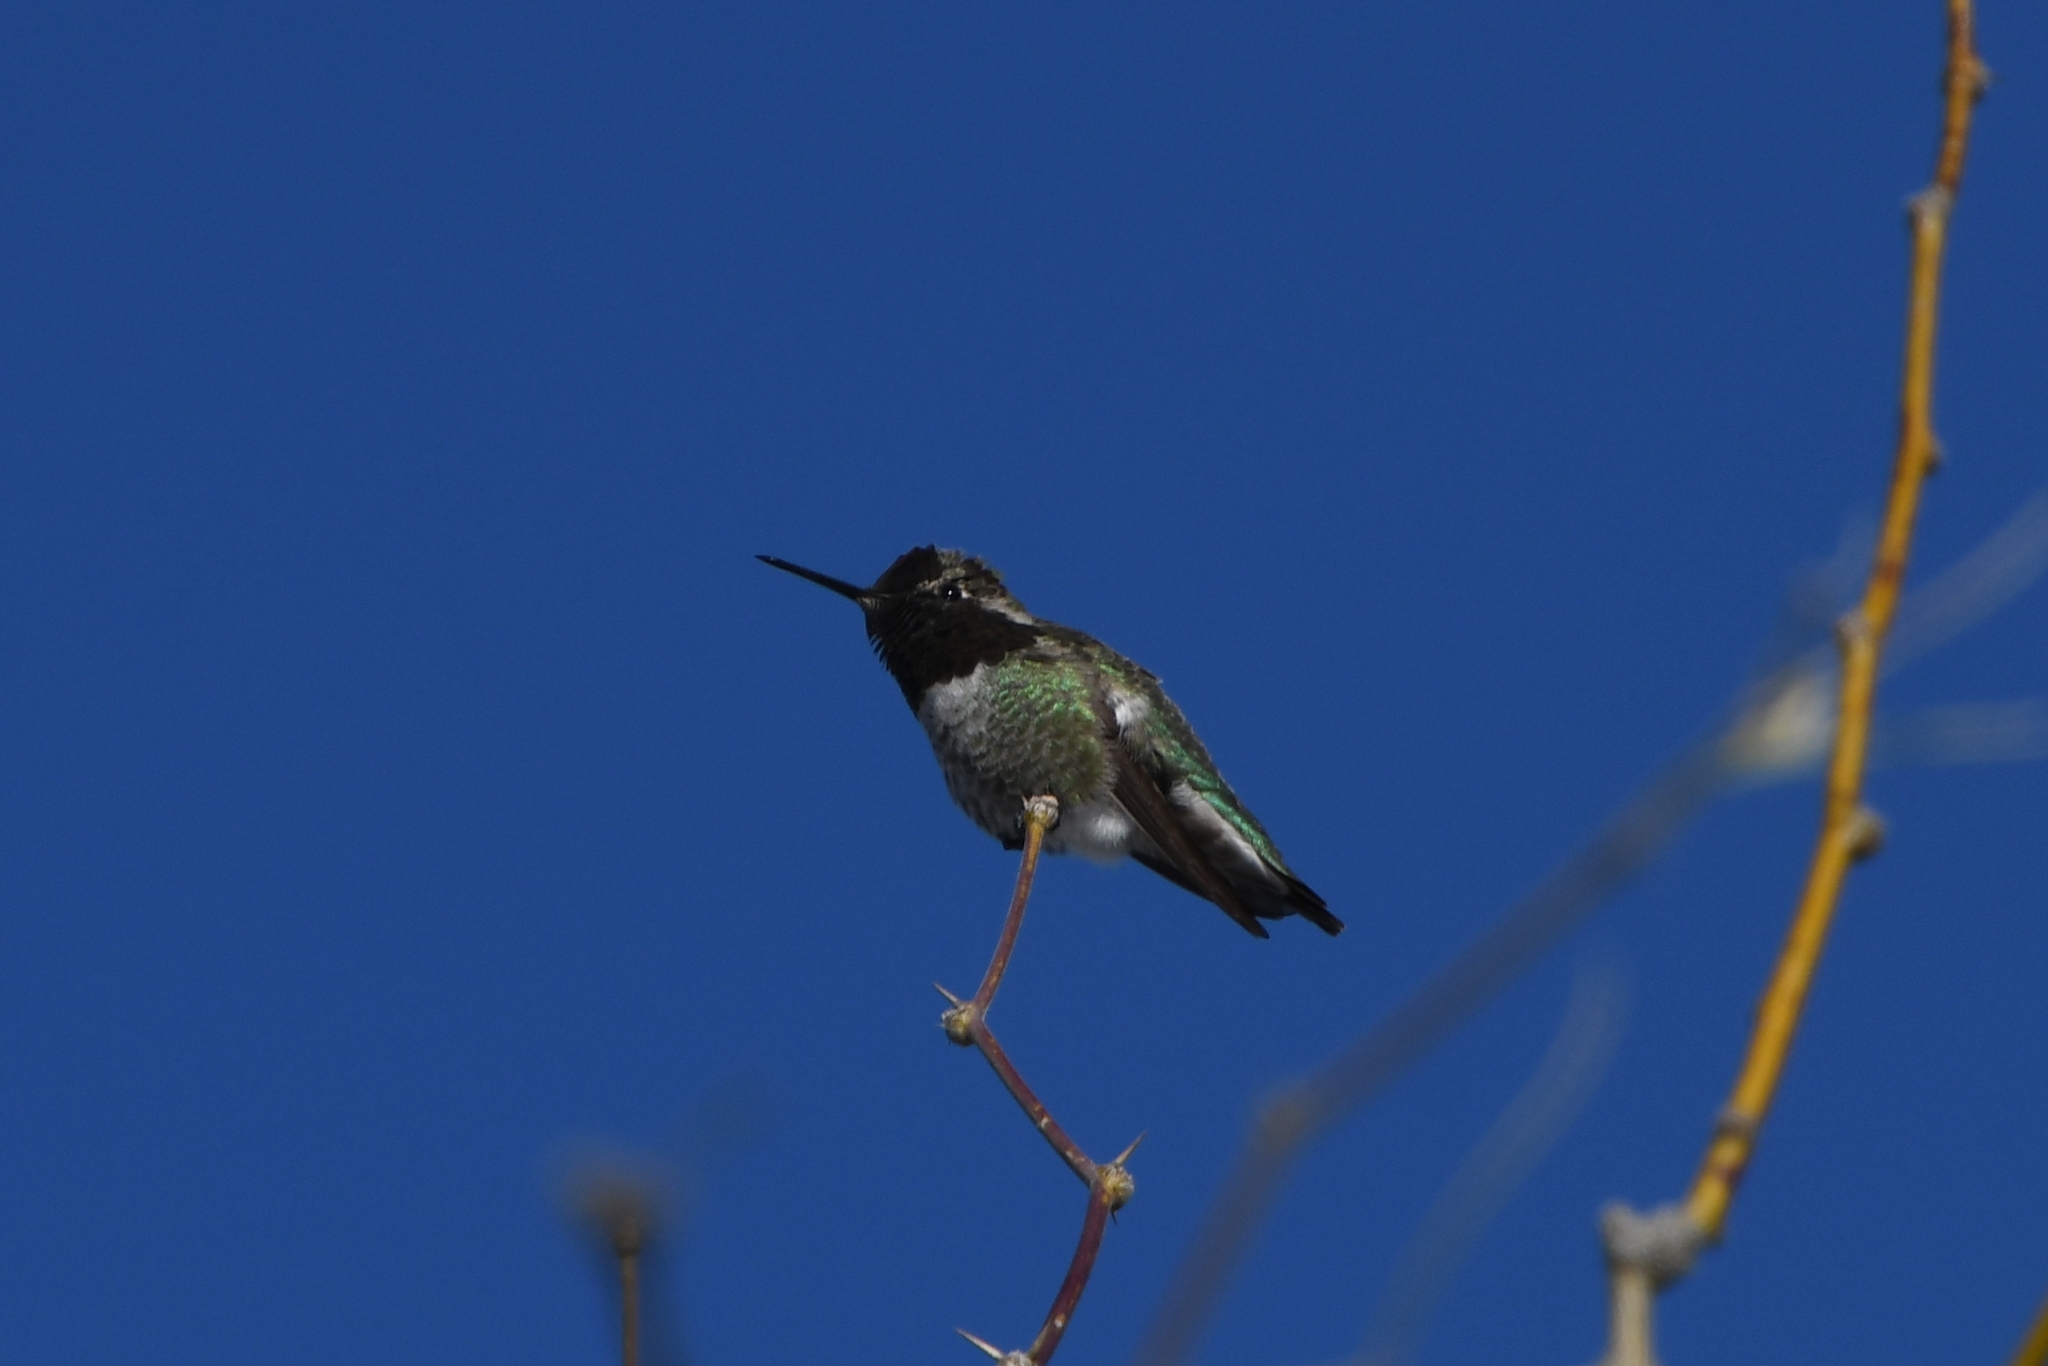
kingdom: Animalia
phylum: Chordata
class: Aves
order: Apodiformes
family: Trochilidae
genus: Calypte
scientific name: Calypte anna
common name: Anna's hummingbird
